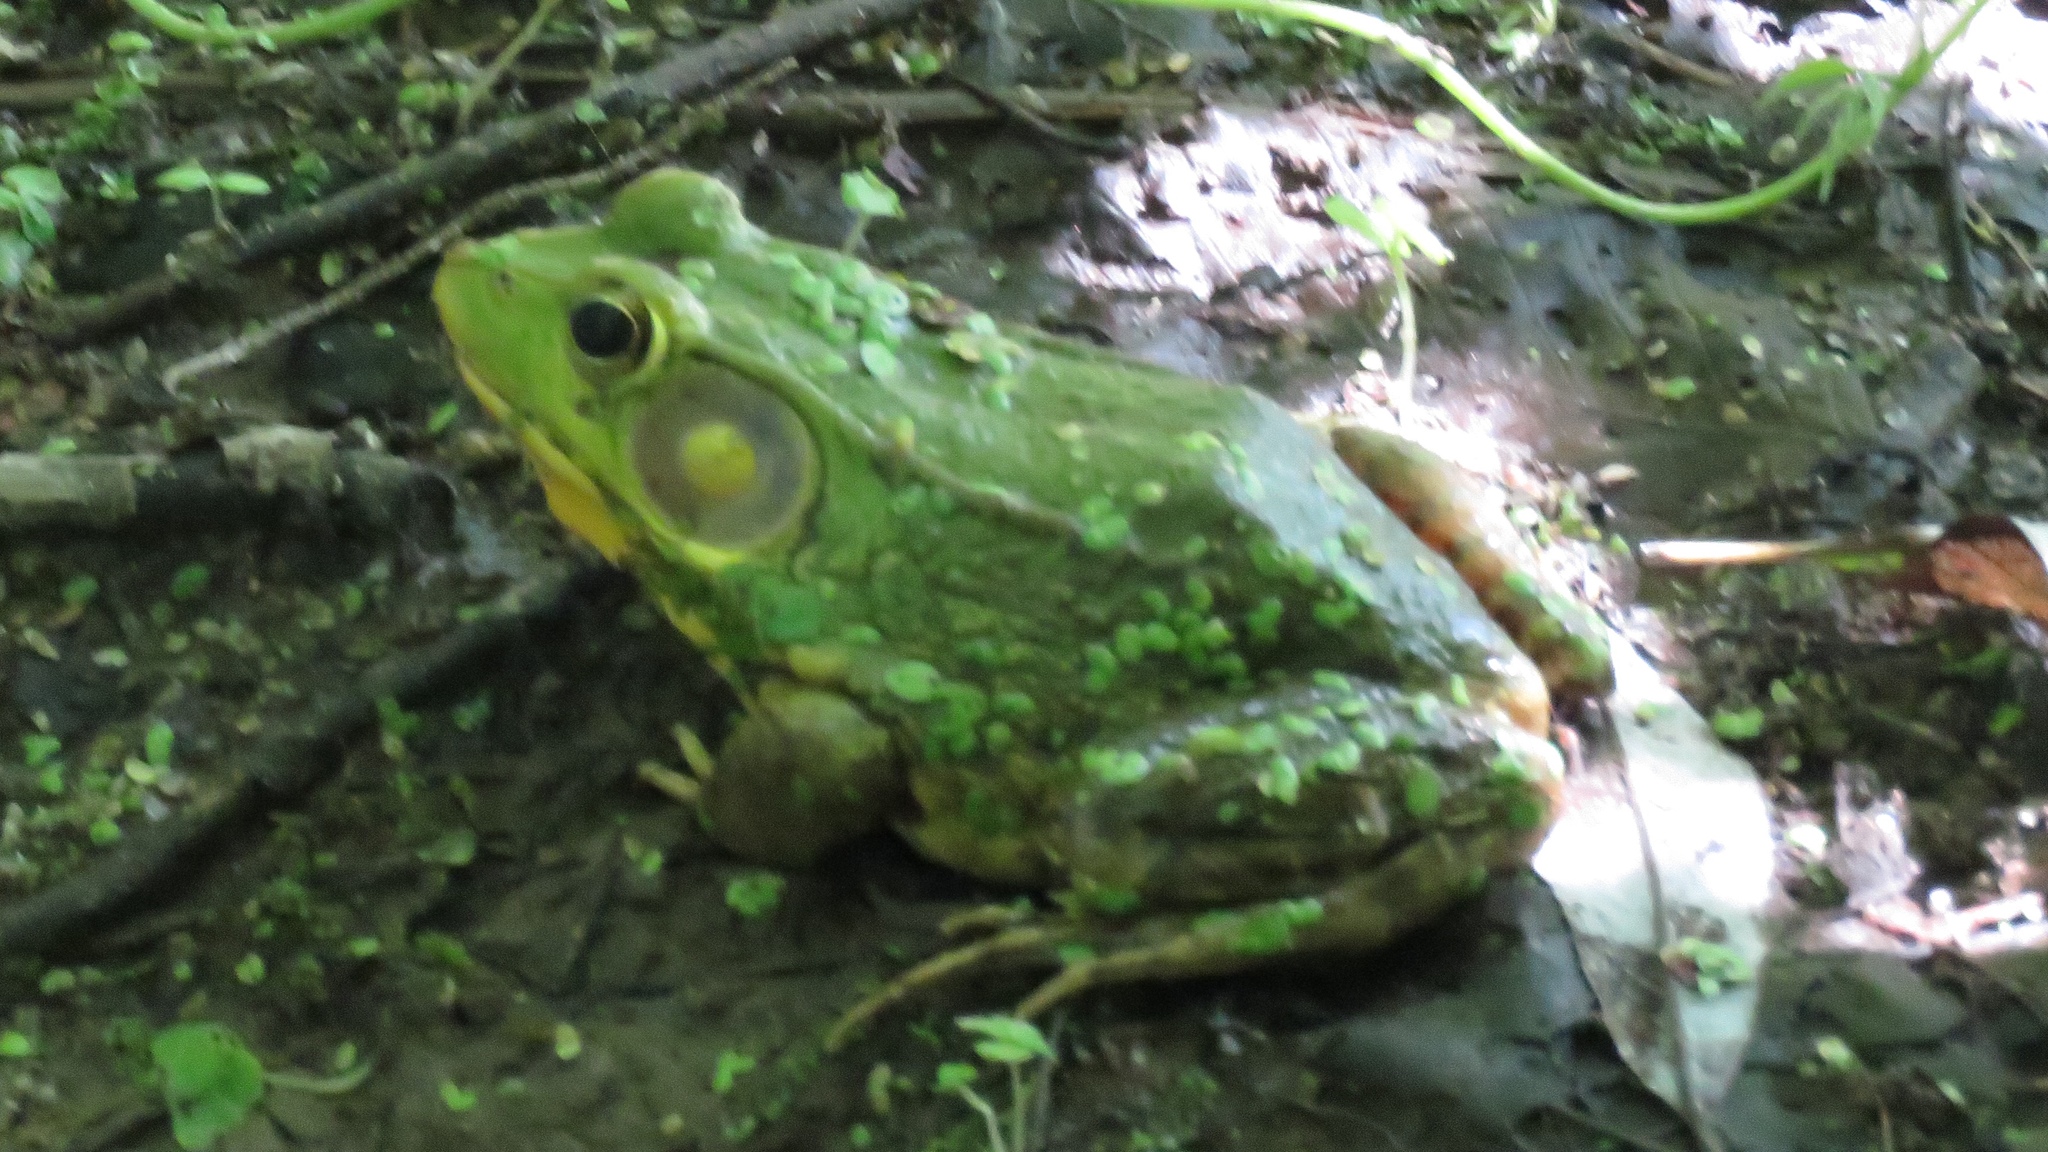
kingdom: Animalia
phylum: Chordata
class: Amphibia
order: Anura
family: Ranidae
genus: Lithobates
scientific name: Lithobates clamitans
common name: Green frog
